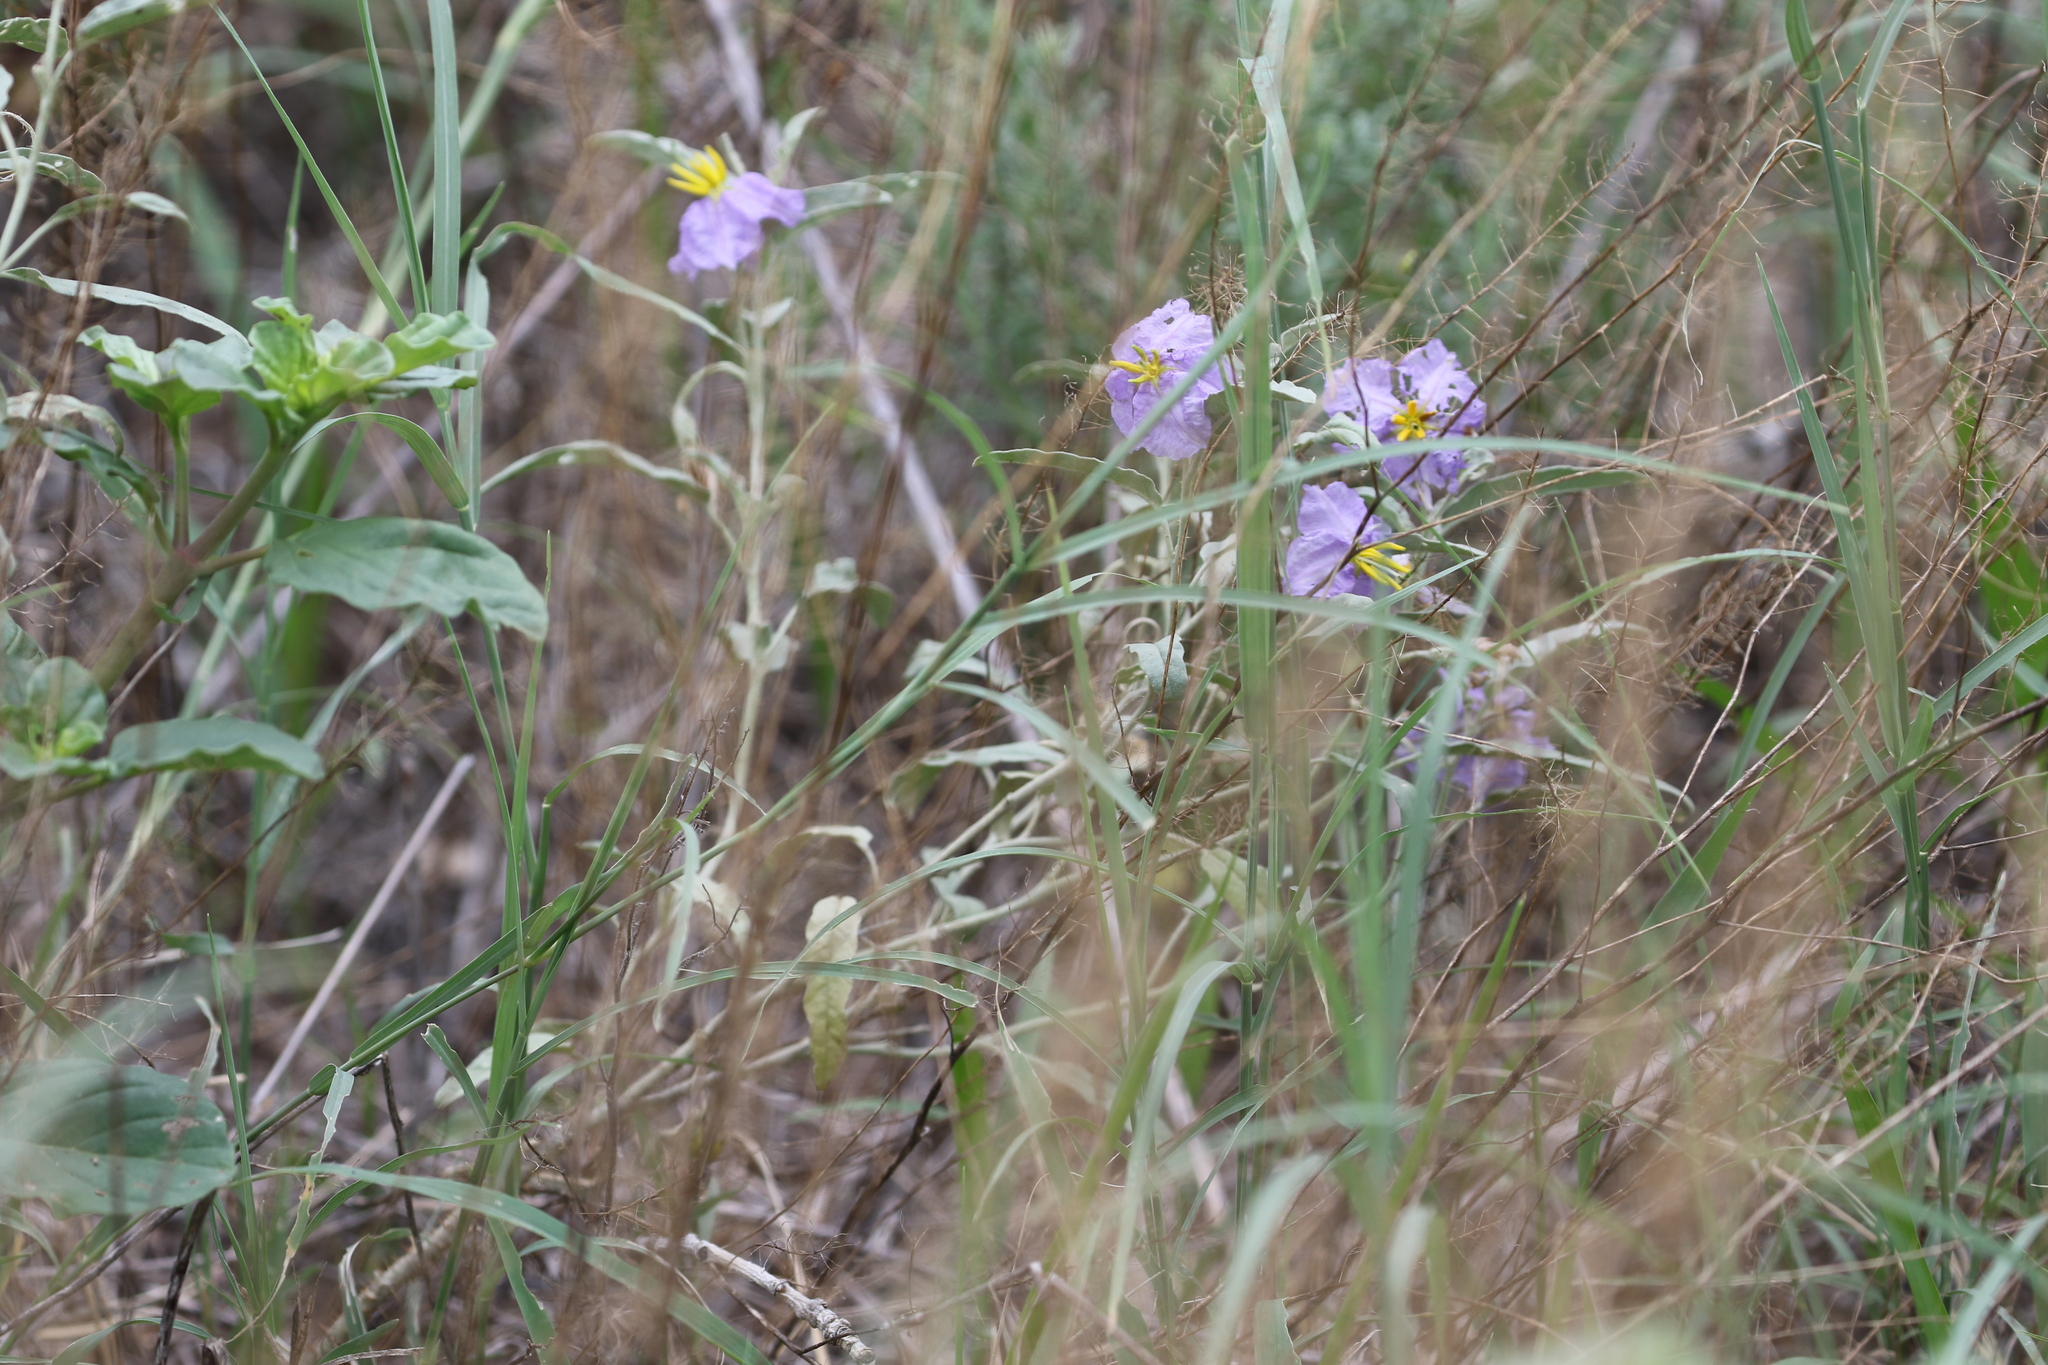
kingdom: Plantae
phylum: Tracheophyta
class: Magnoliopsida
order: Solanales
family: Solanaceae
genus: Solanum
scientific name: Solanum elaeagnifolium
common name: Silverleaf nightshade
